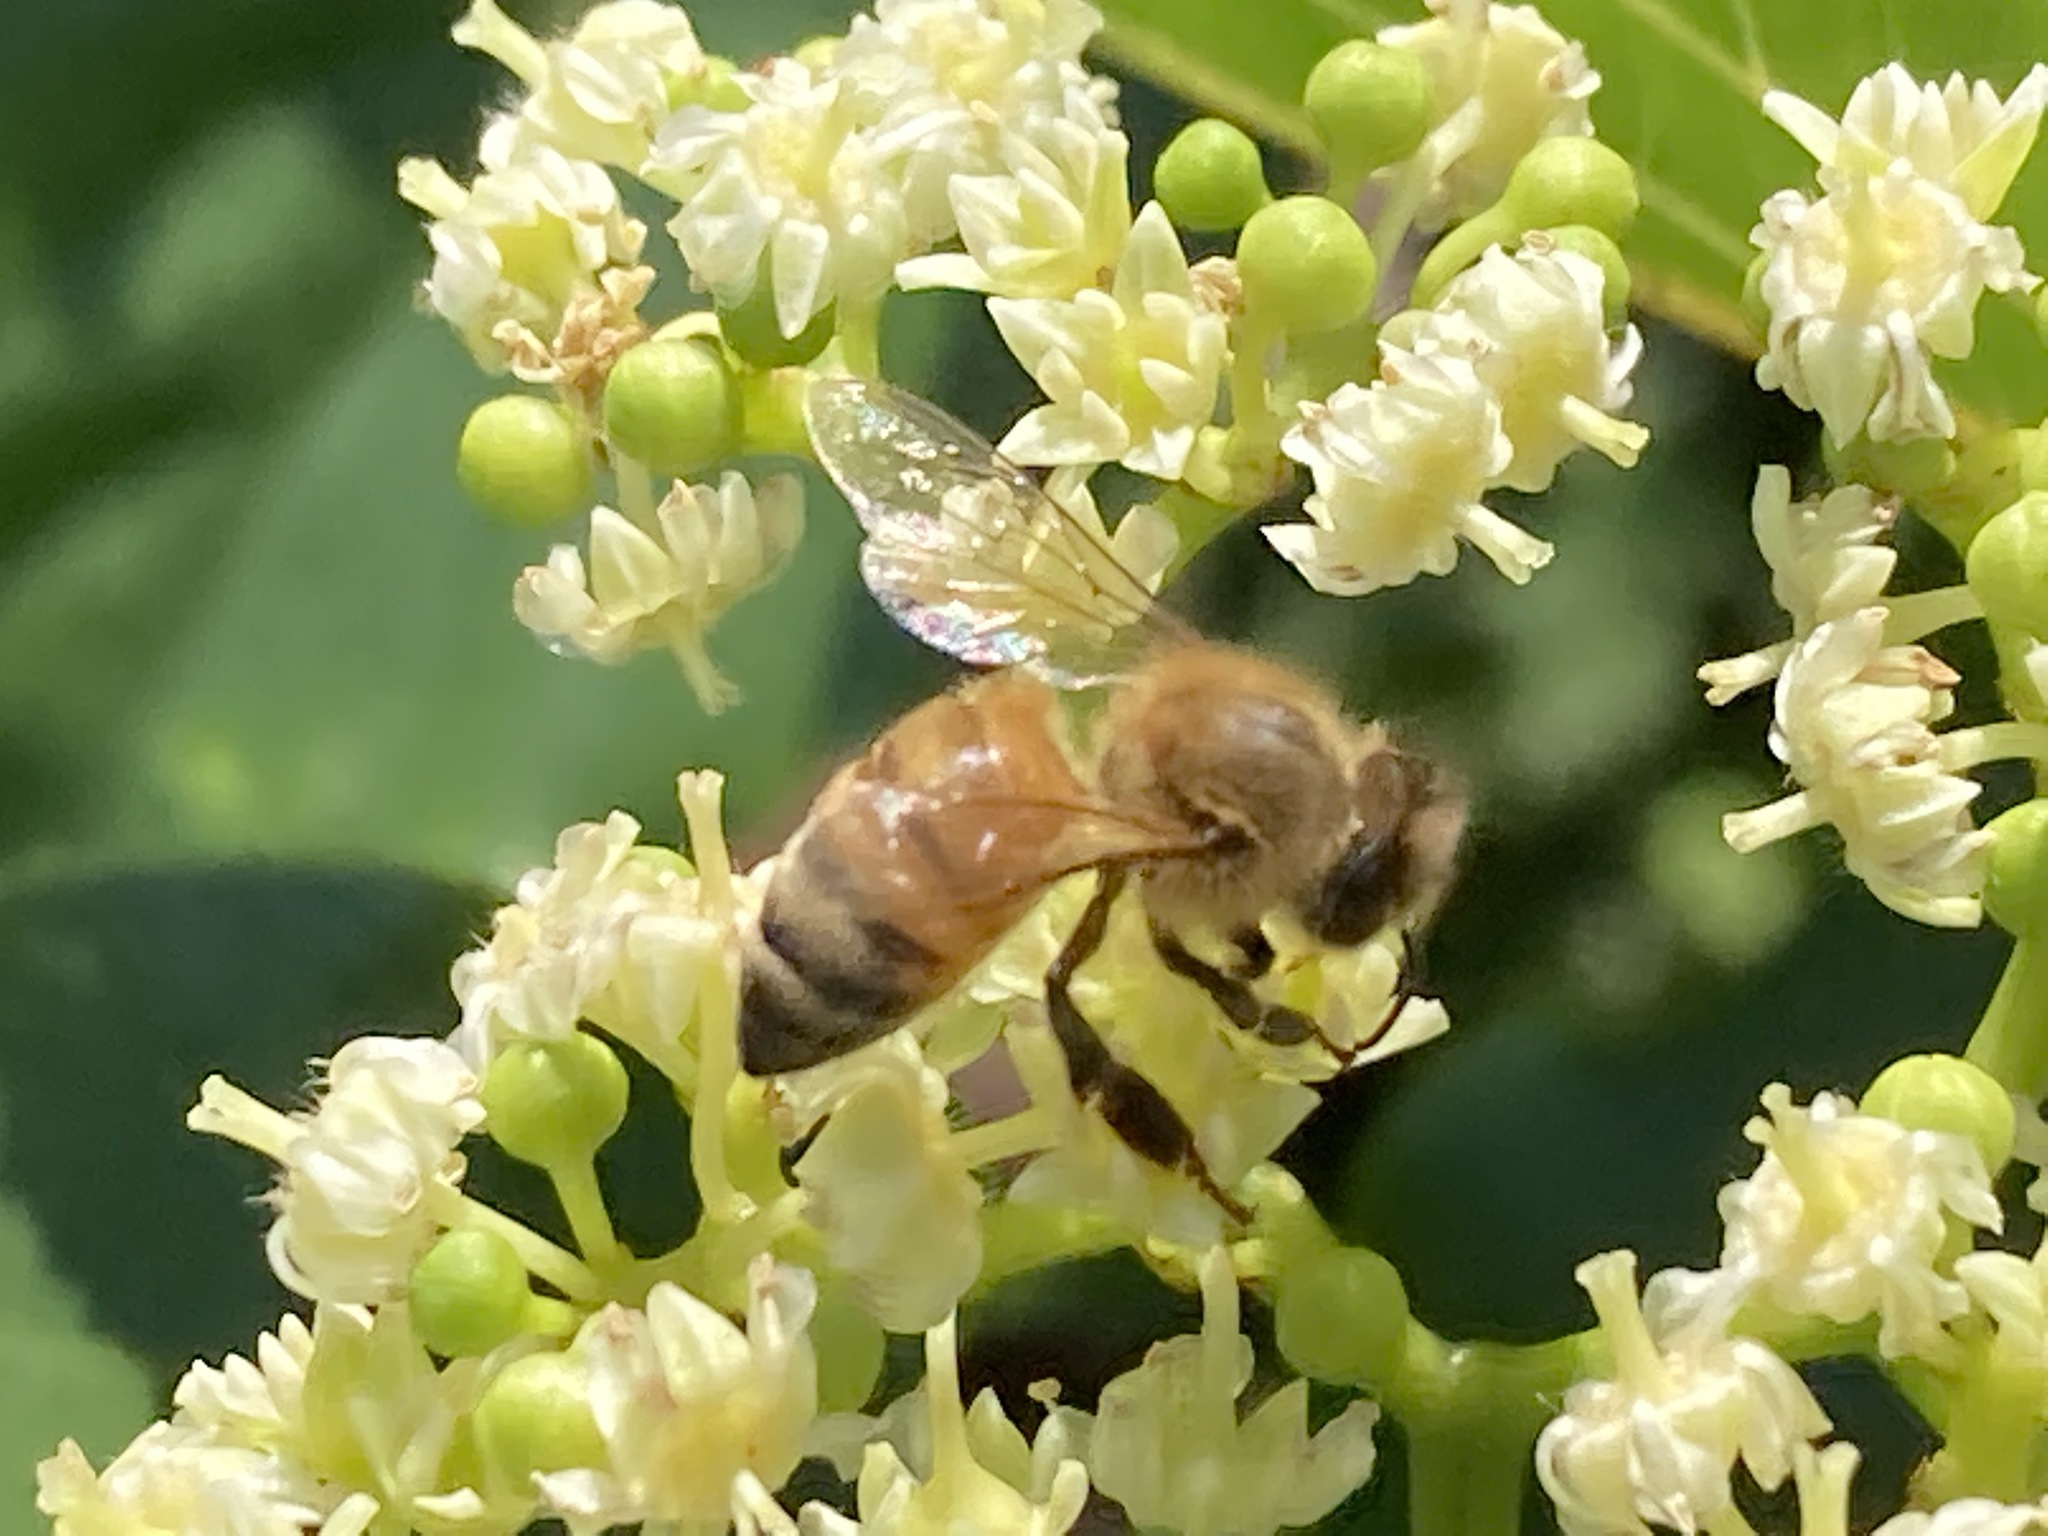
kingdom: Animalia
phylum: Arthropoda
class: Insecta
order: Hymenoptera
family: Apidae
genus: Apis
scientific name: Apis mellifera
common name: Honey bee
